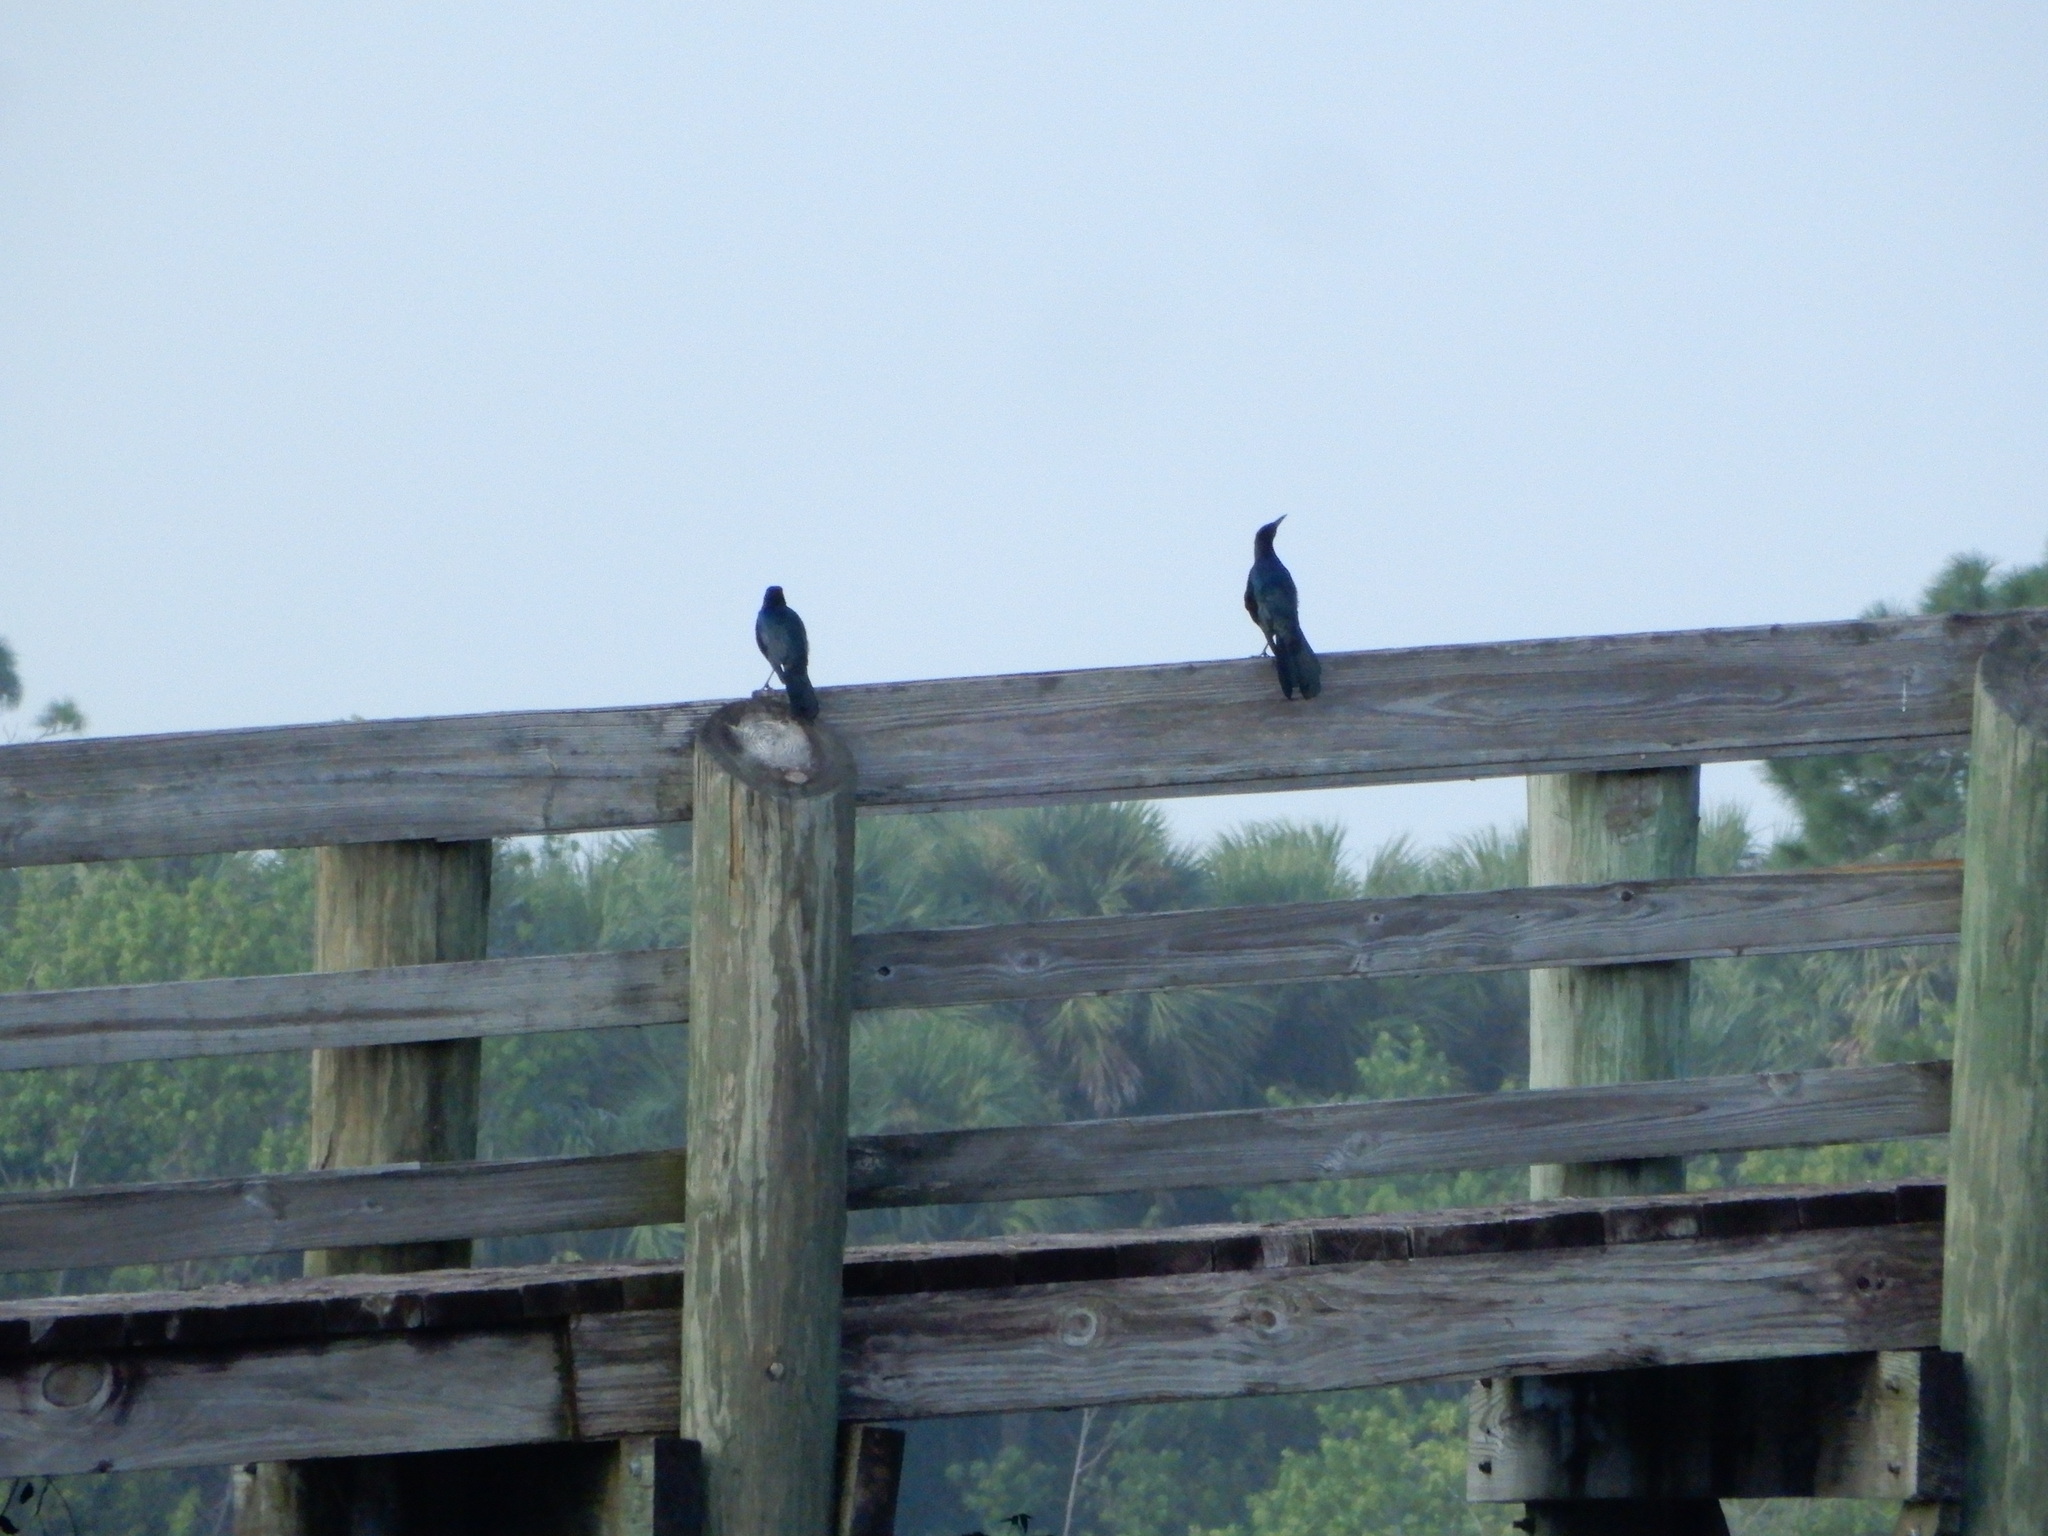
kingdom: Animalia
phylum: Chordata
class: Aves
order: Passeriformes
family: Icteridae
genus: Quiscalus
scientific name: Quiscalus major
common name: Boat-tailed grackle
